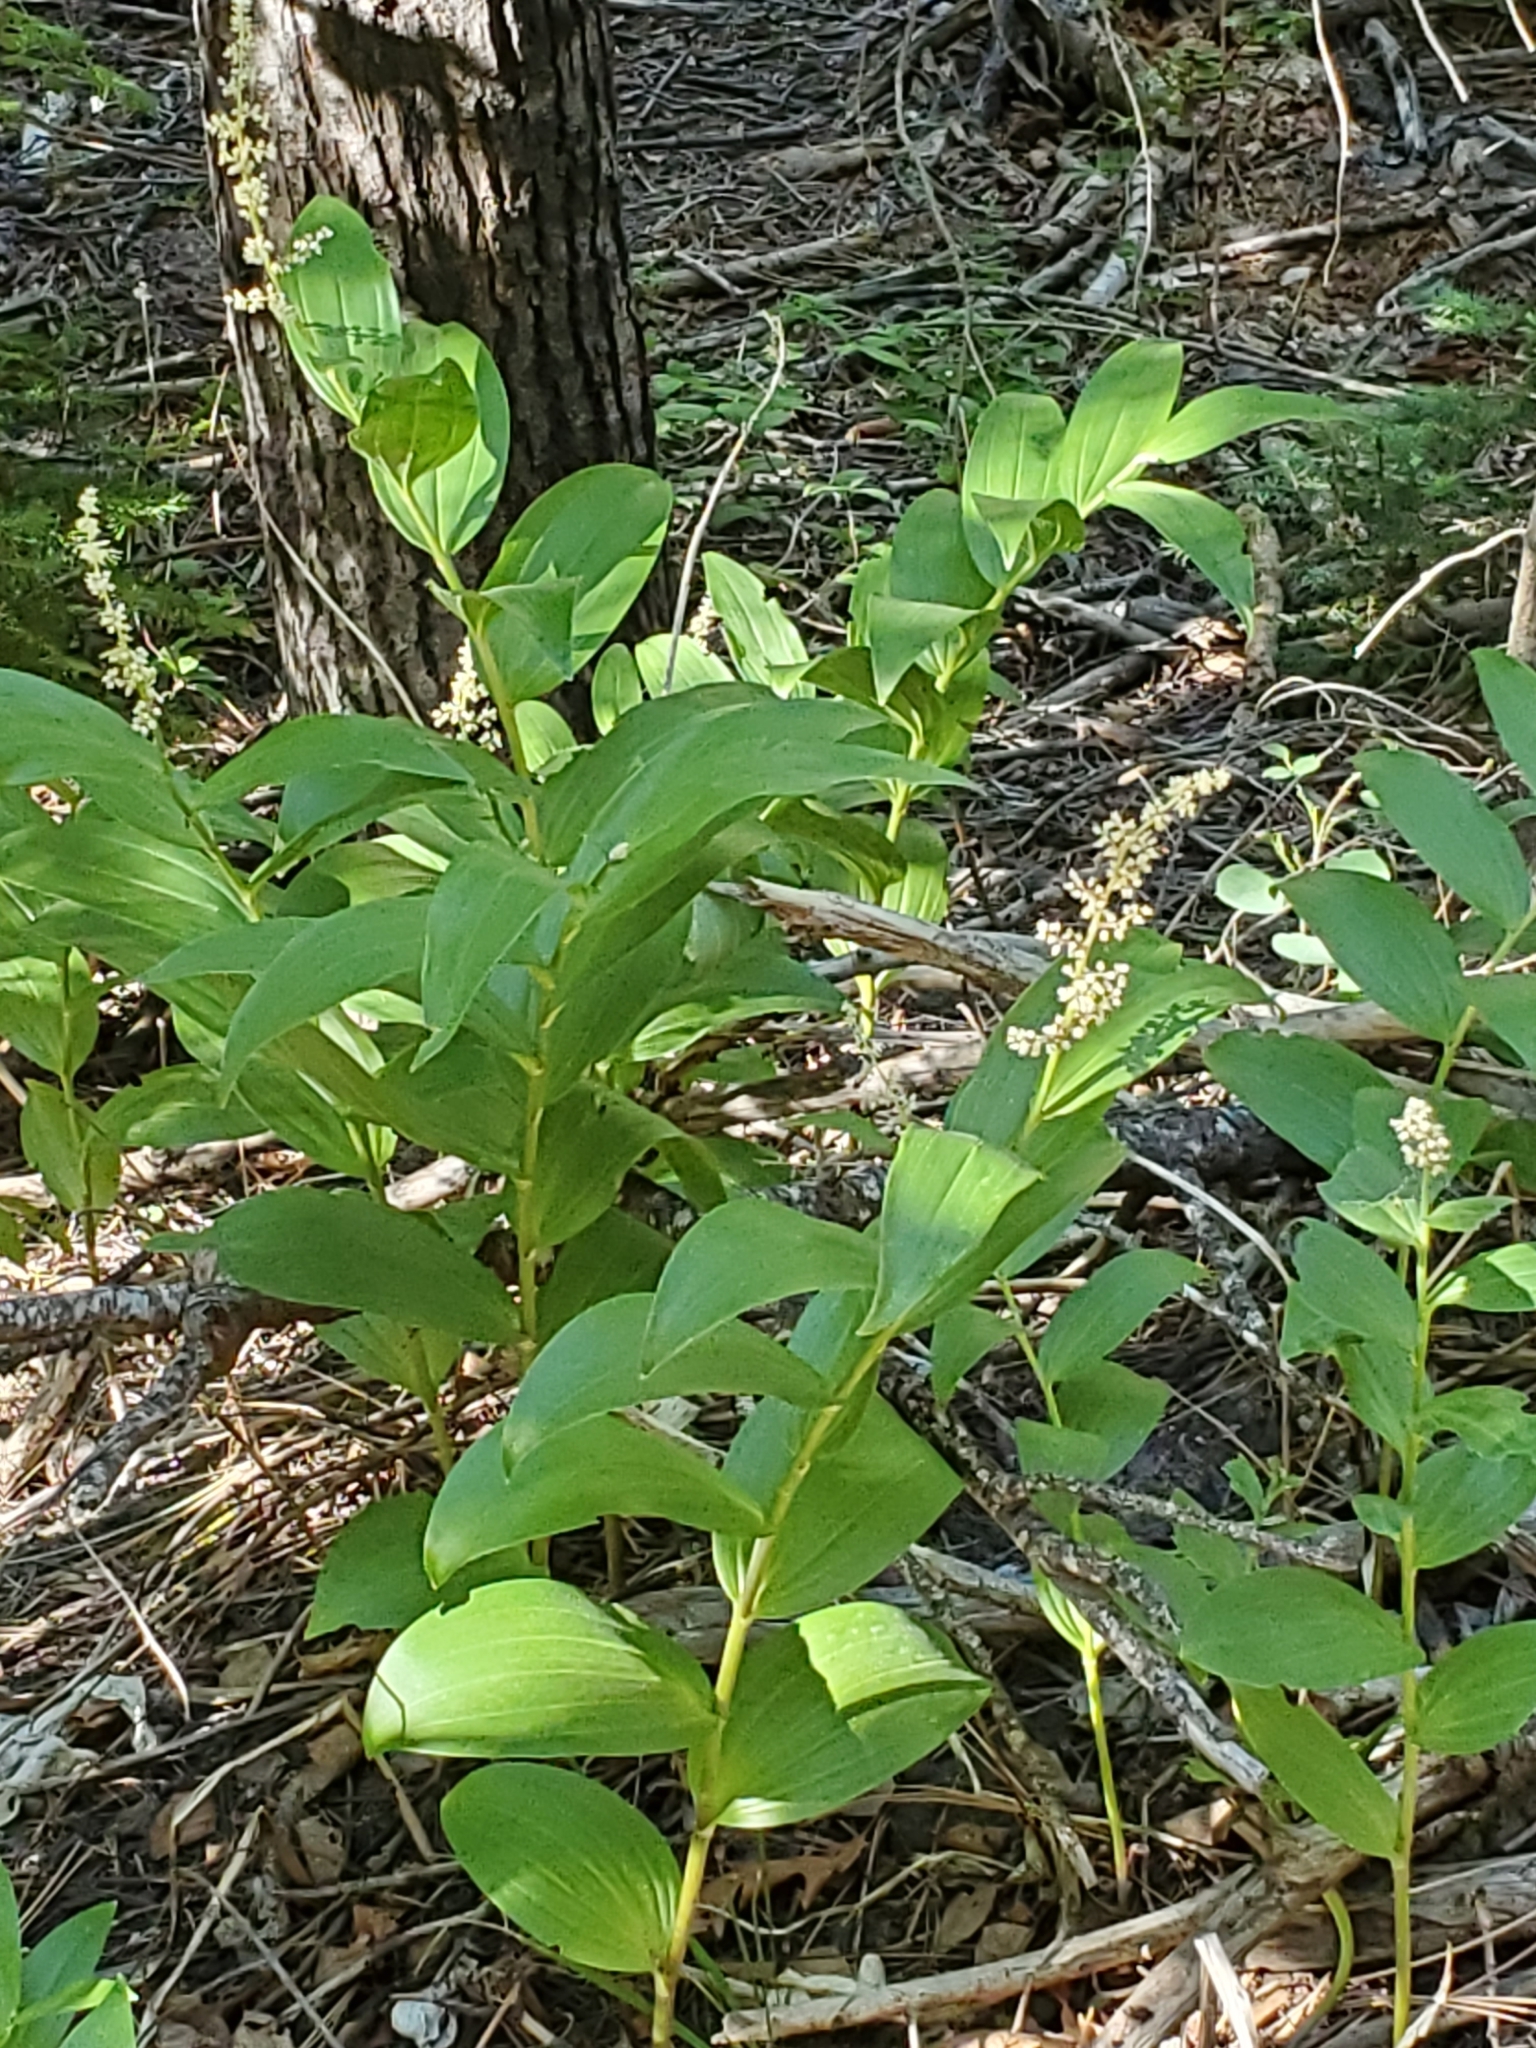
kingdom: Plantae
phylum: Tracheophyta
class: Liliopsida
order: Asparagales
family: Asparagaceae
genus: Maianthemum
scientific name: Maianthemum racemosum
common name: False spikenard
